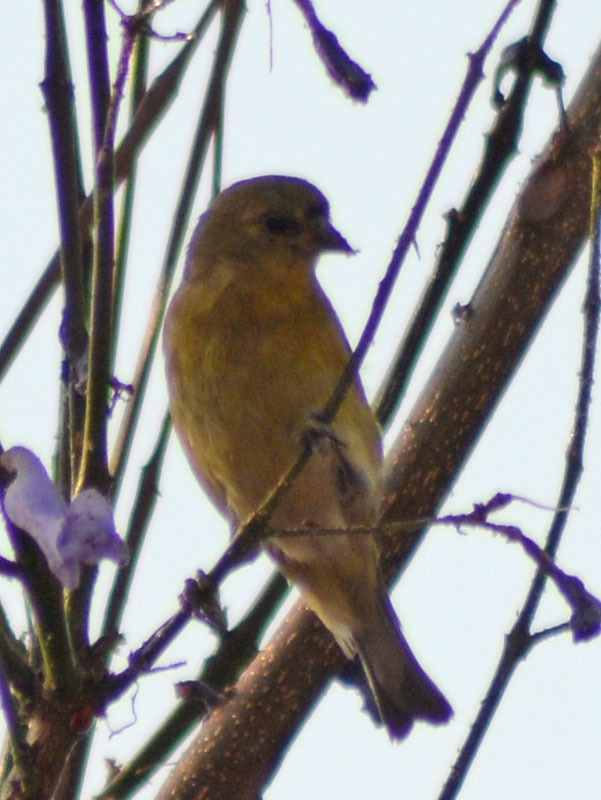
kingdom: Animalia
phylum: Chordata
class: Aves
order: Passeriformes
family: Fringillidae
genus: Spinus
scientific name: Spinus psaltria
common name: Lesser goldfinch
